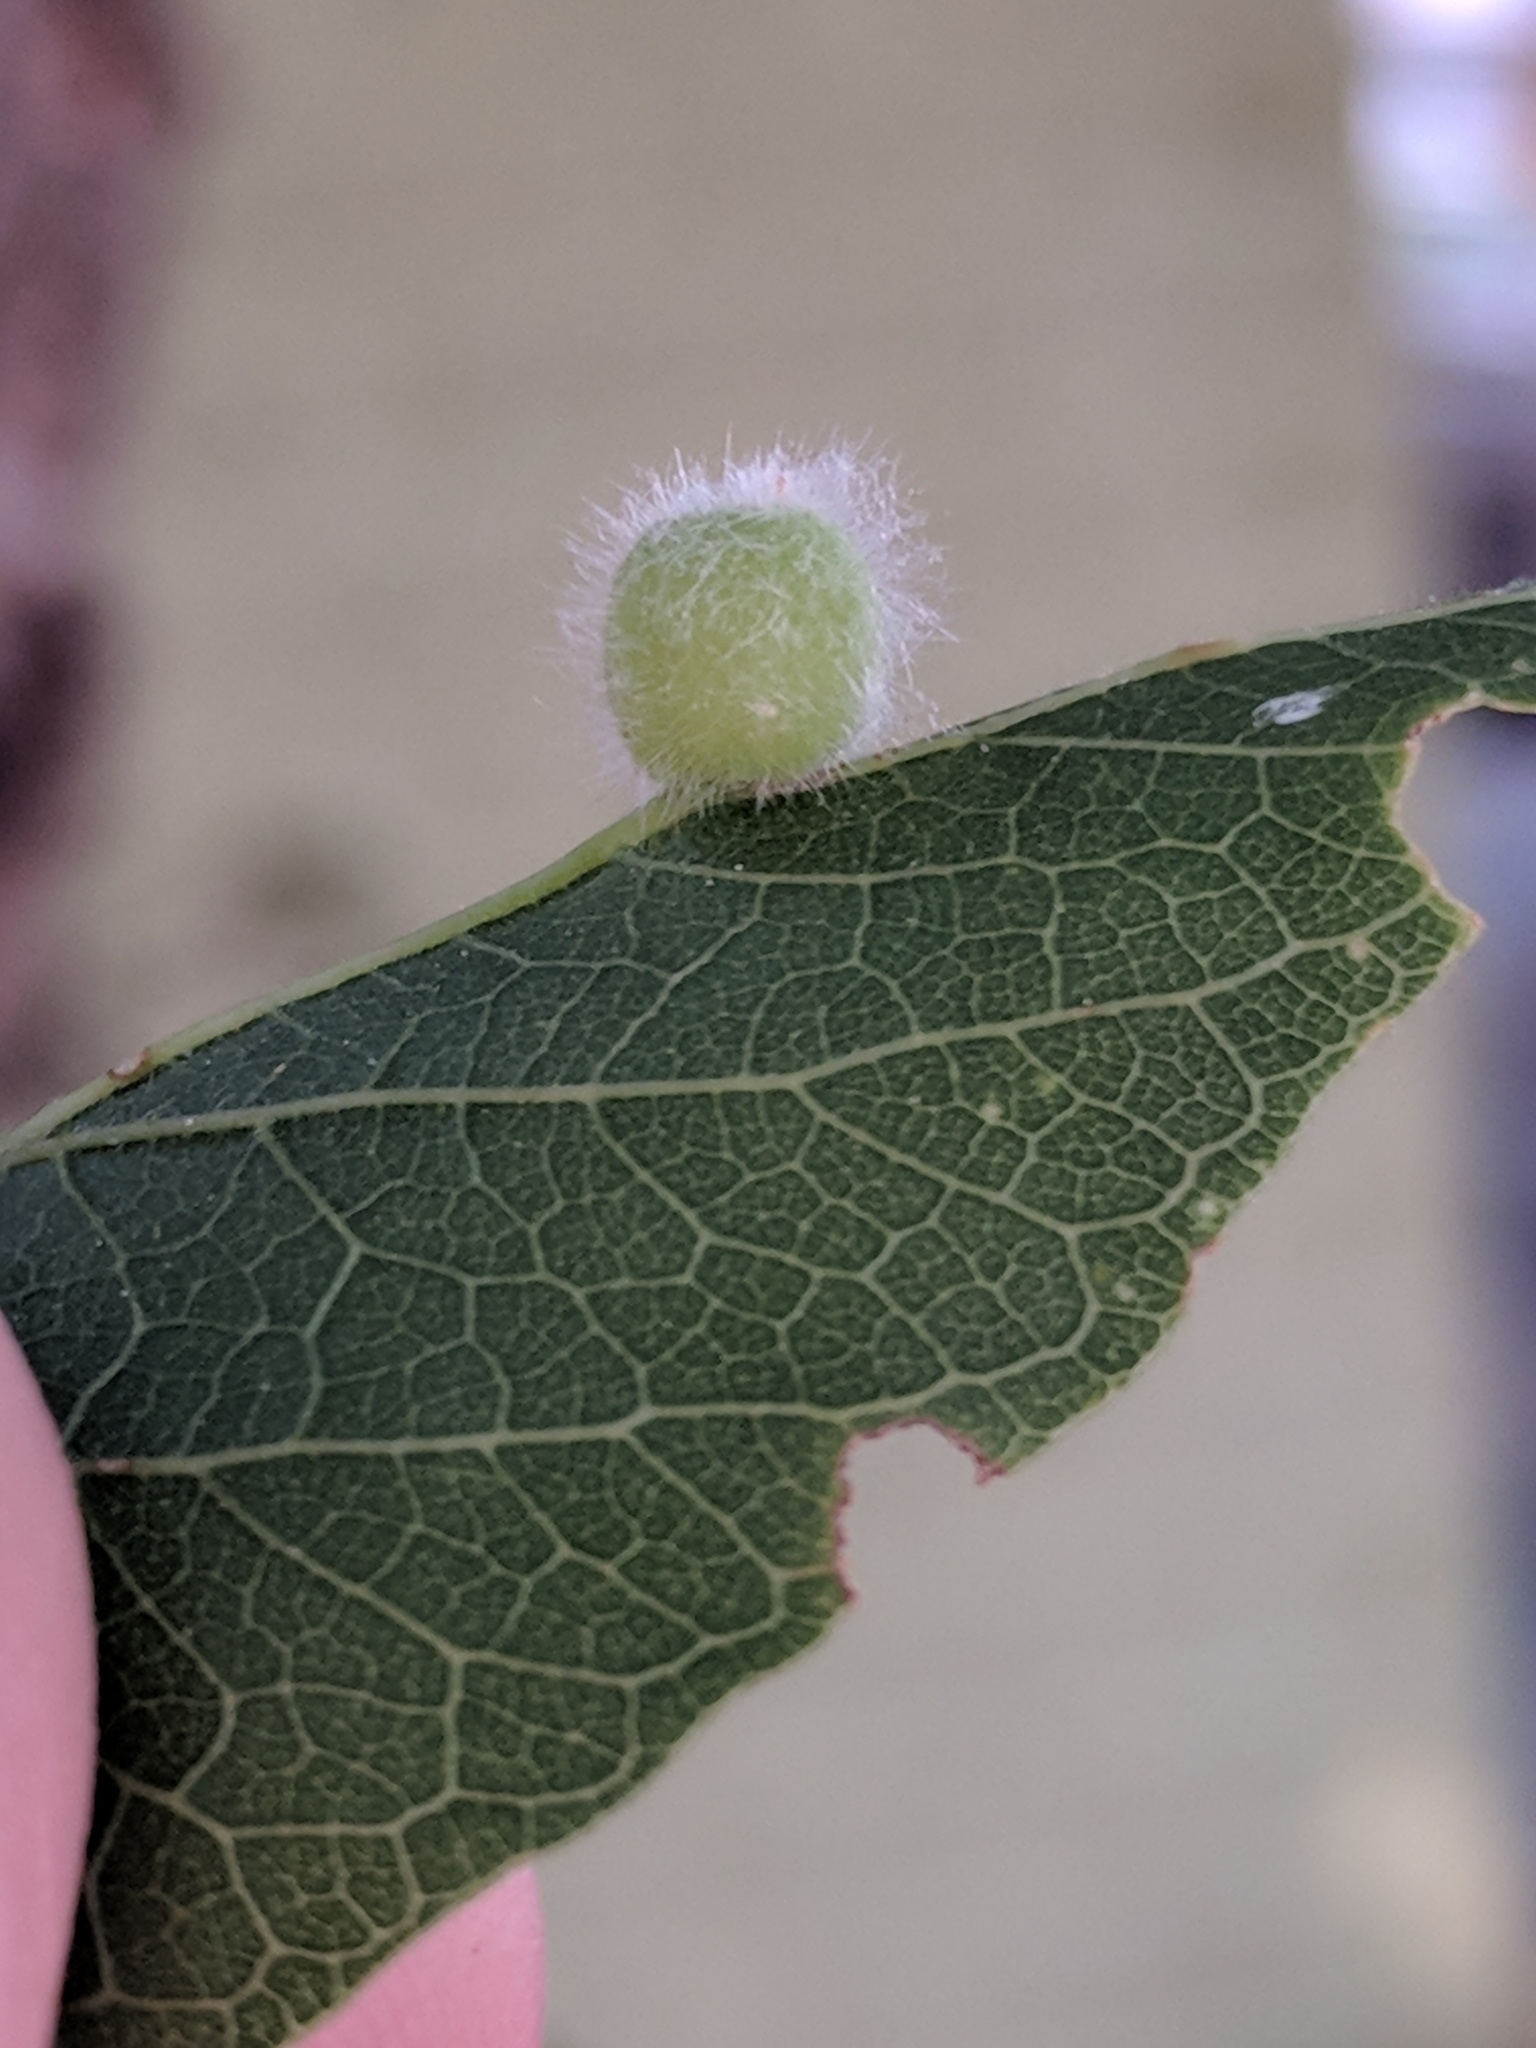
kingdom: Animalia
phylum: Arthropoda
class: Insecta
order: Diptera
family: Cecidomyiidae
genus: Celticecis
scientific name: Celticecis pubescens
